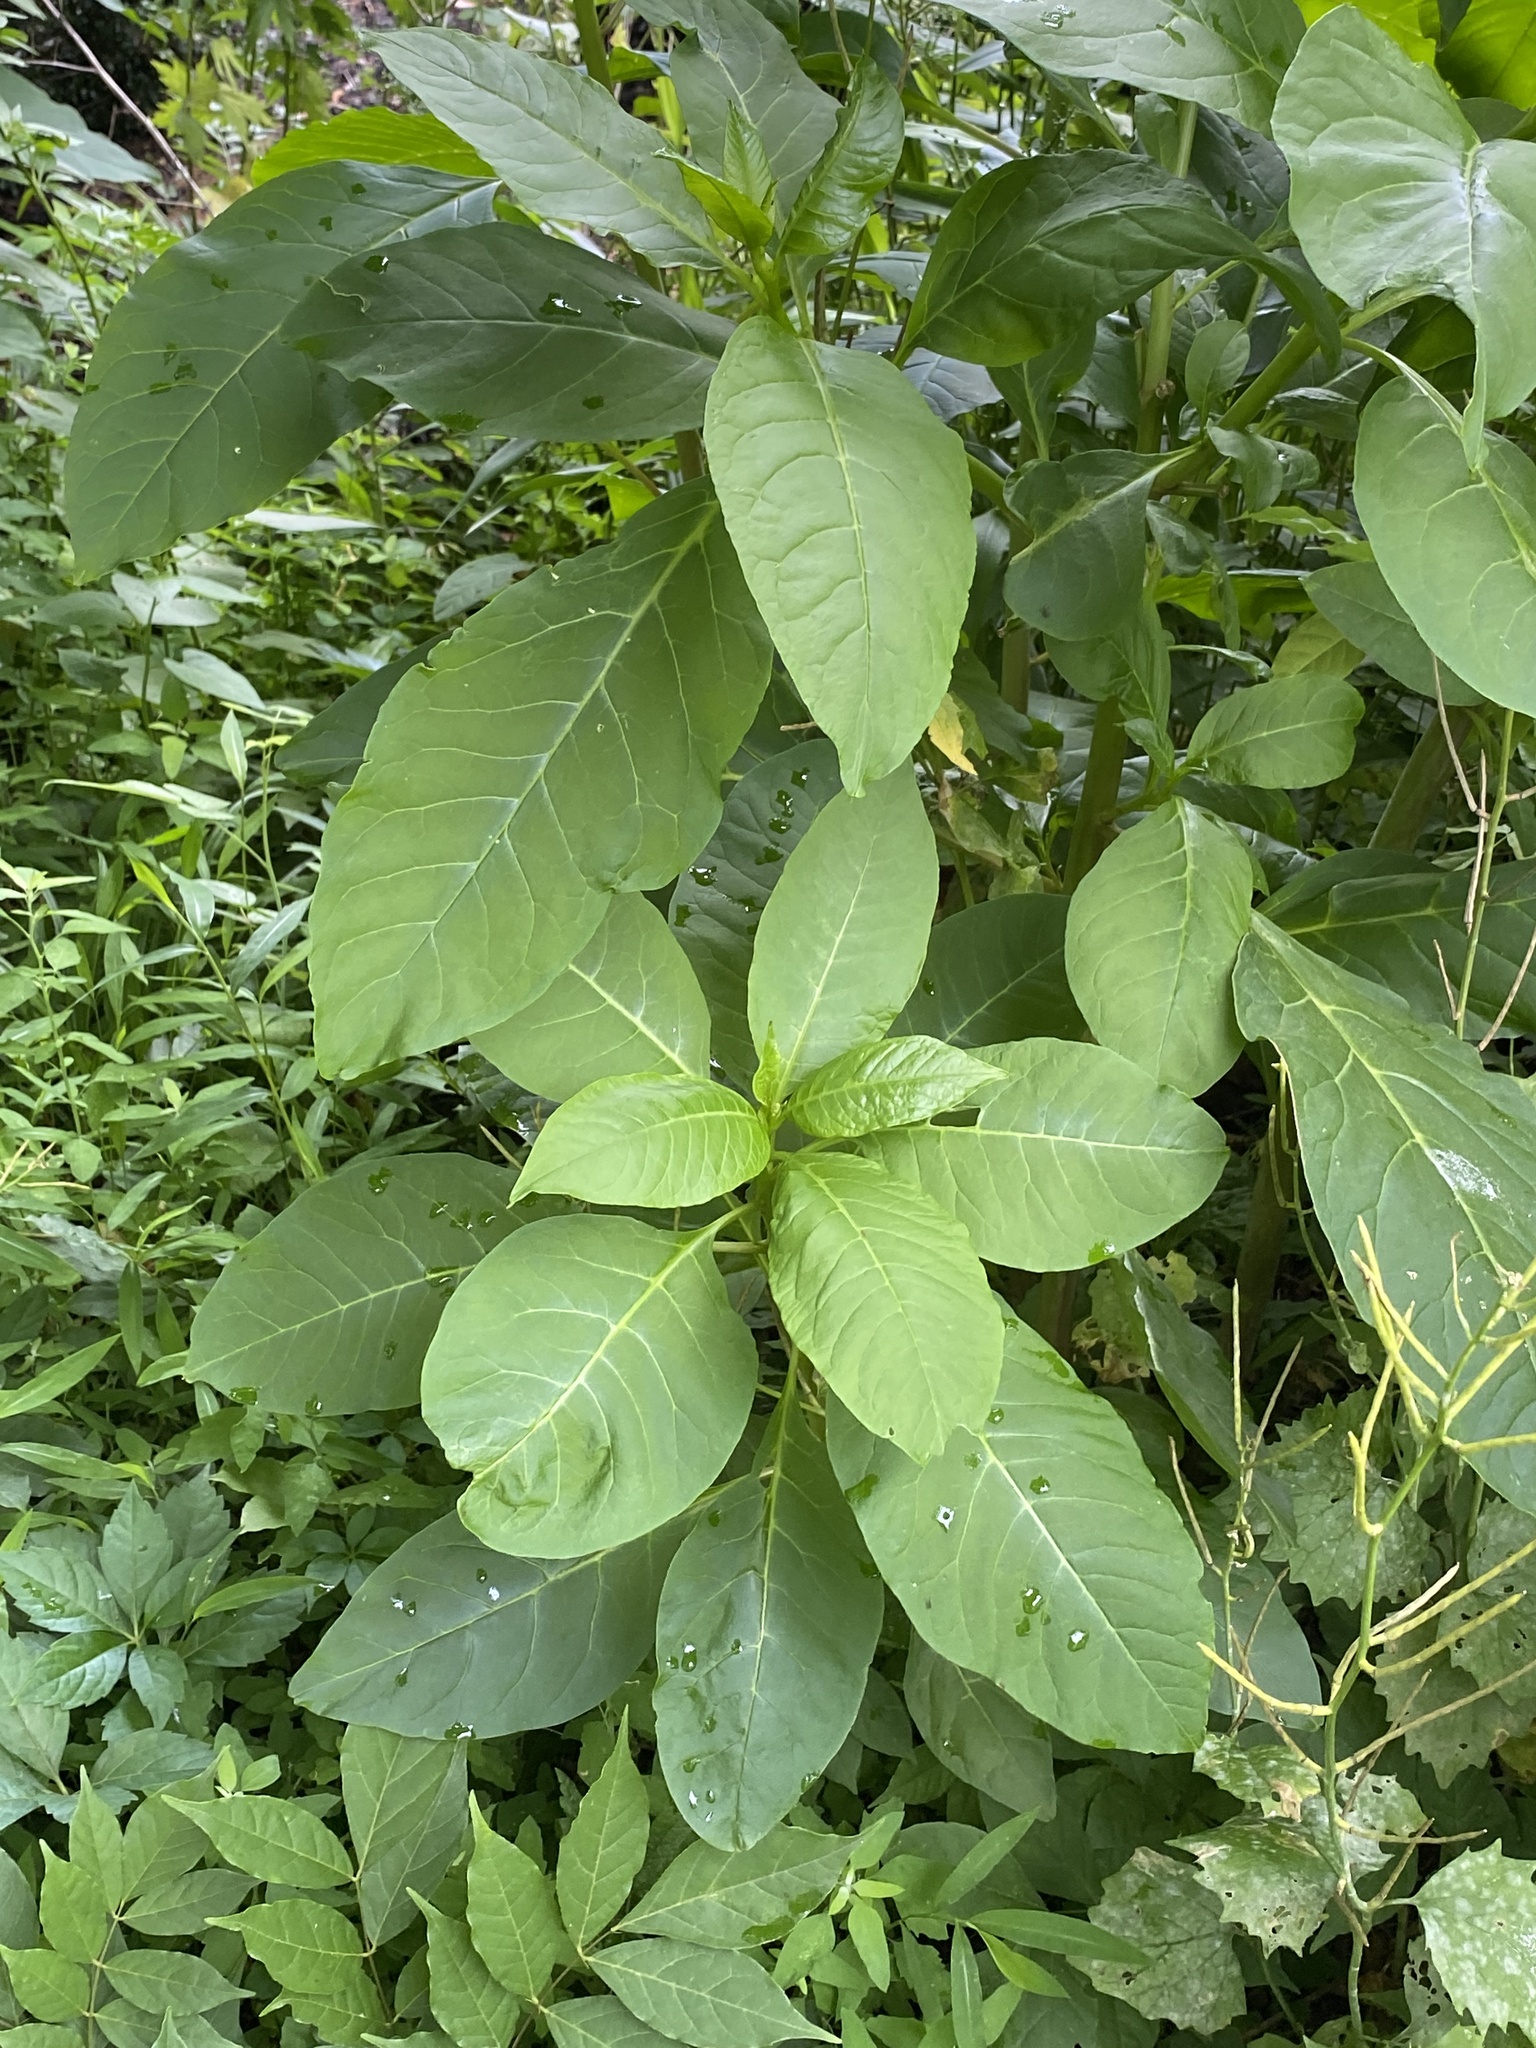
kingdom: Plantae
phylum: Tracheophyta
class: Magnoliopsida
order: Caryophyllales
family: Phytolaccaceae
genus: Phytolacca
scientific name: Phytolacca americana
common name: American pokeweed
